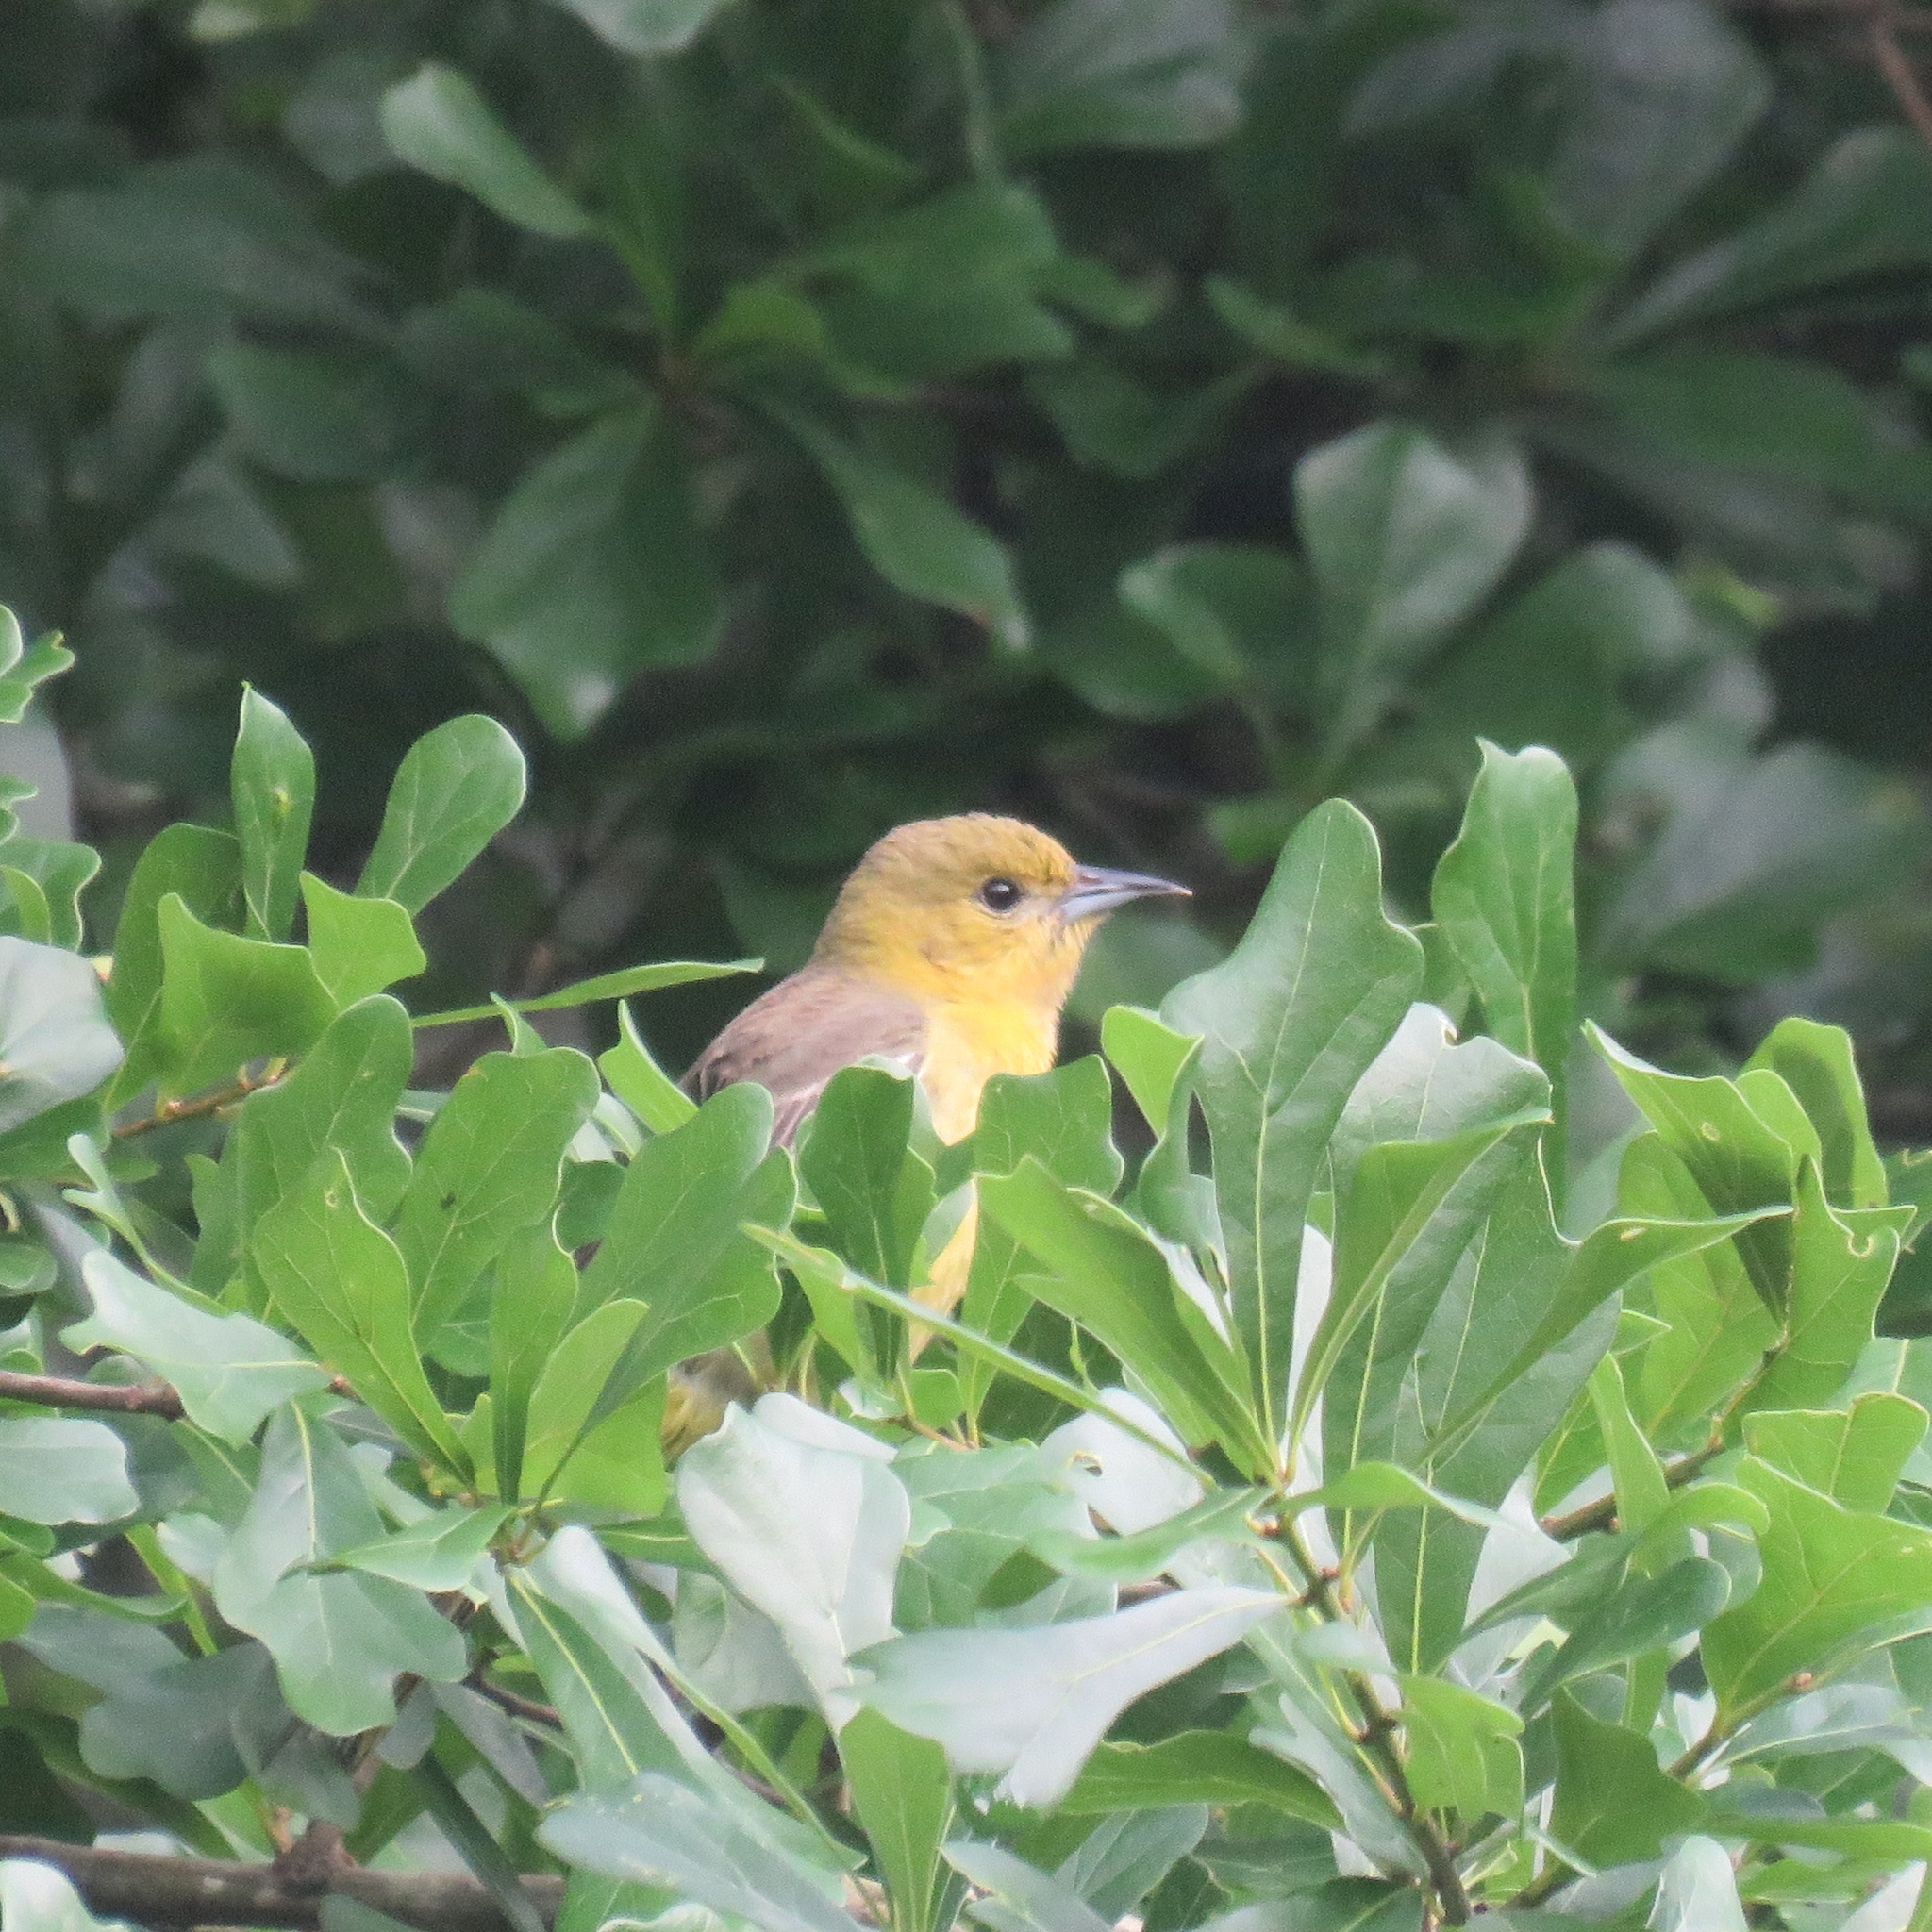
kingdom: Animalia
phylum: Chordata
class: Aves
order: Passeriformes
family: Icteridae
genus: Icterus
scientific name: Icterus spurius
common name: Orchard oriole
